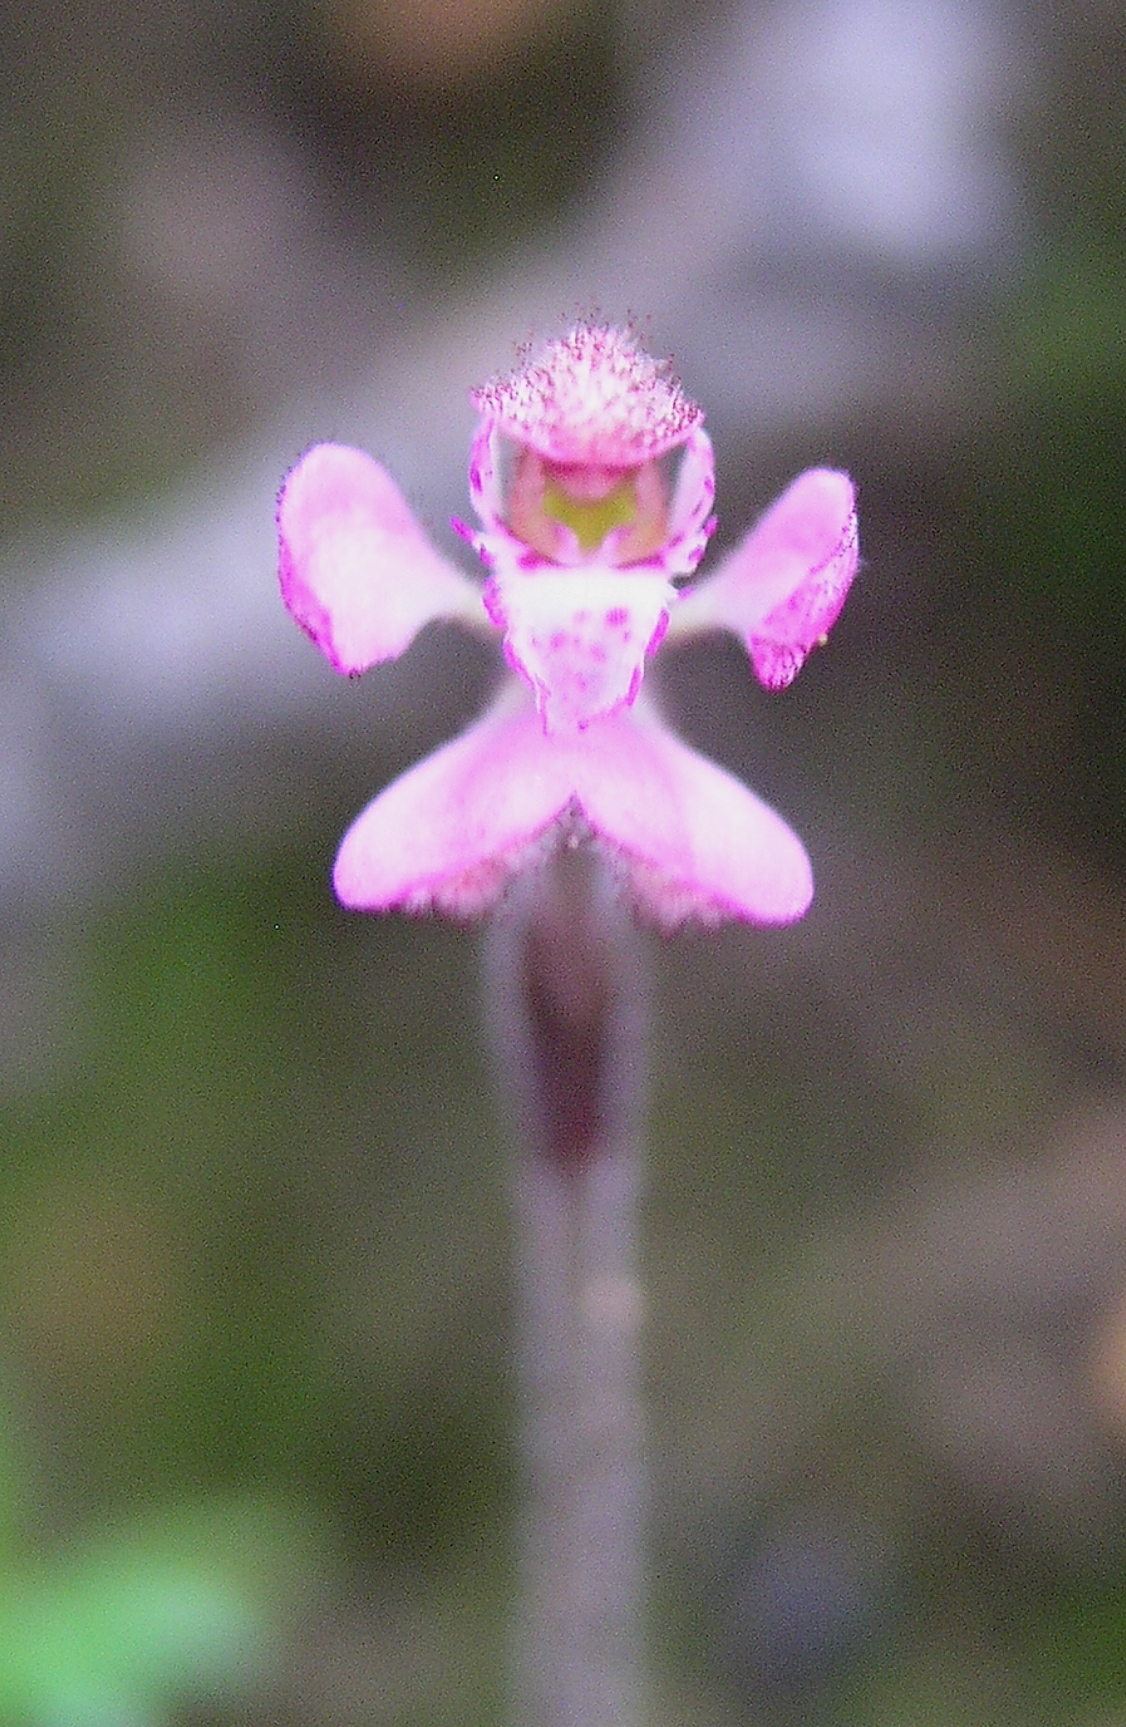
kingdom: Plantae
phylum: Tracheophyta
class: Liliopsida
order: Asparagales
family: Orchidaceae
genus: Caladenia
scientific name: Caladenia nana
